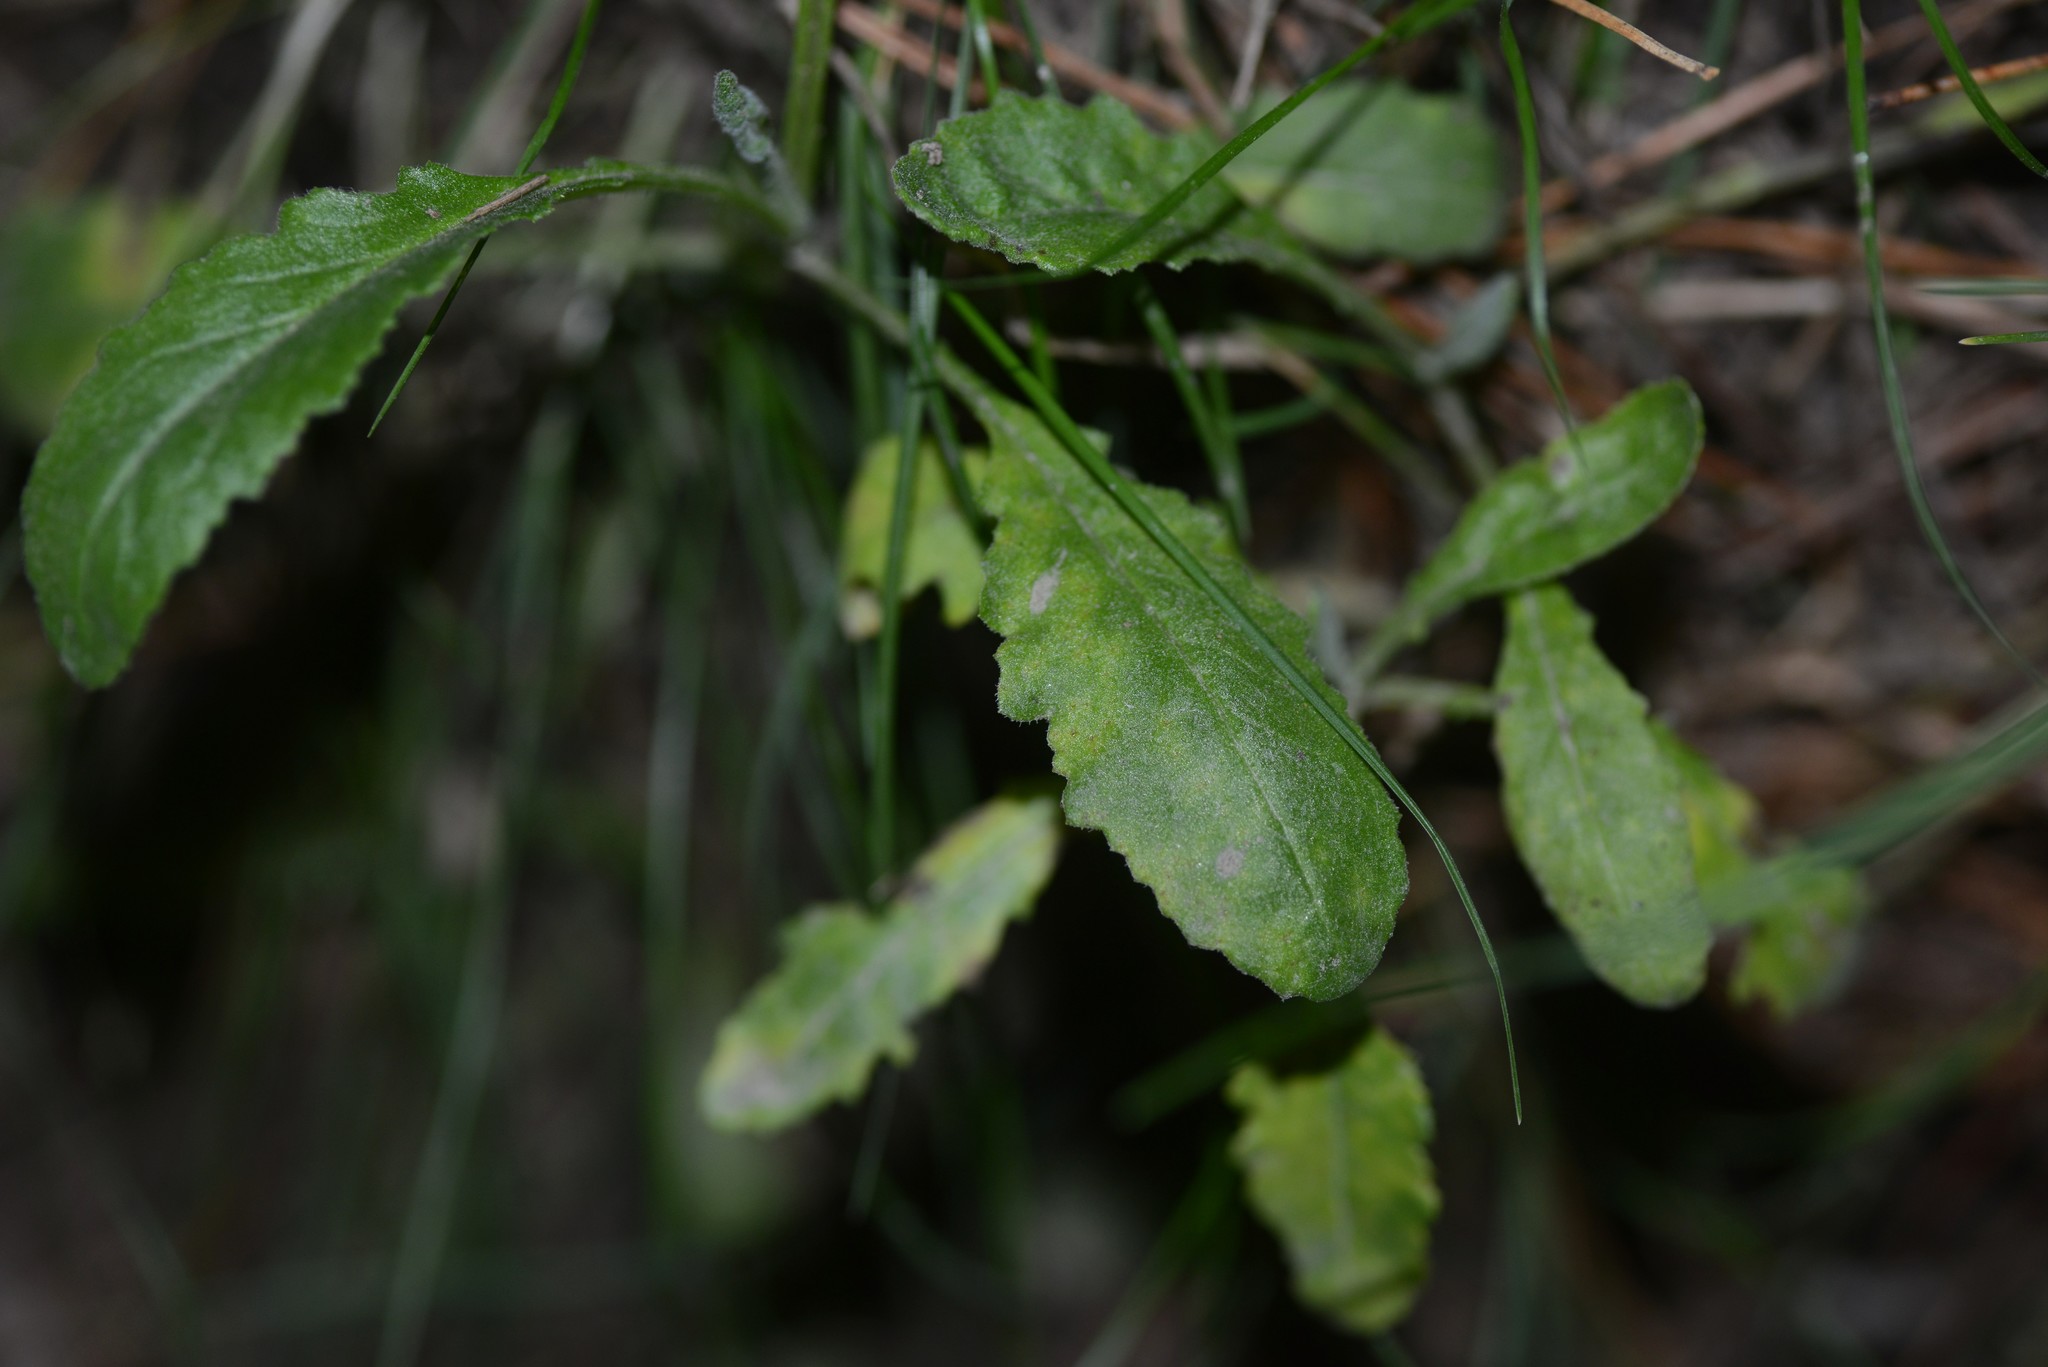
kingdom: Plantae
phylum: Tracheophyta
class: Magnoliopsida
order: Asterales
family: Asteraceae
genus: Senecio
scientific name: Senecio glomeratus
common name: Cutleaf burnweed
